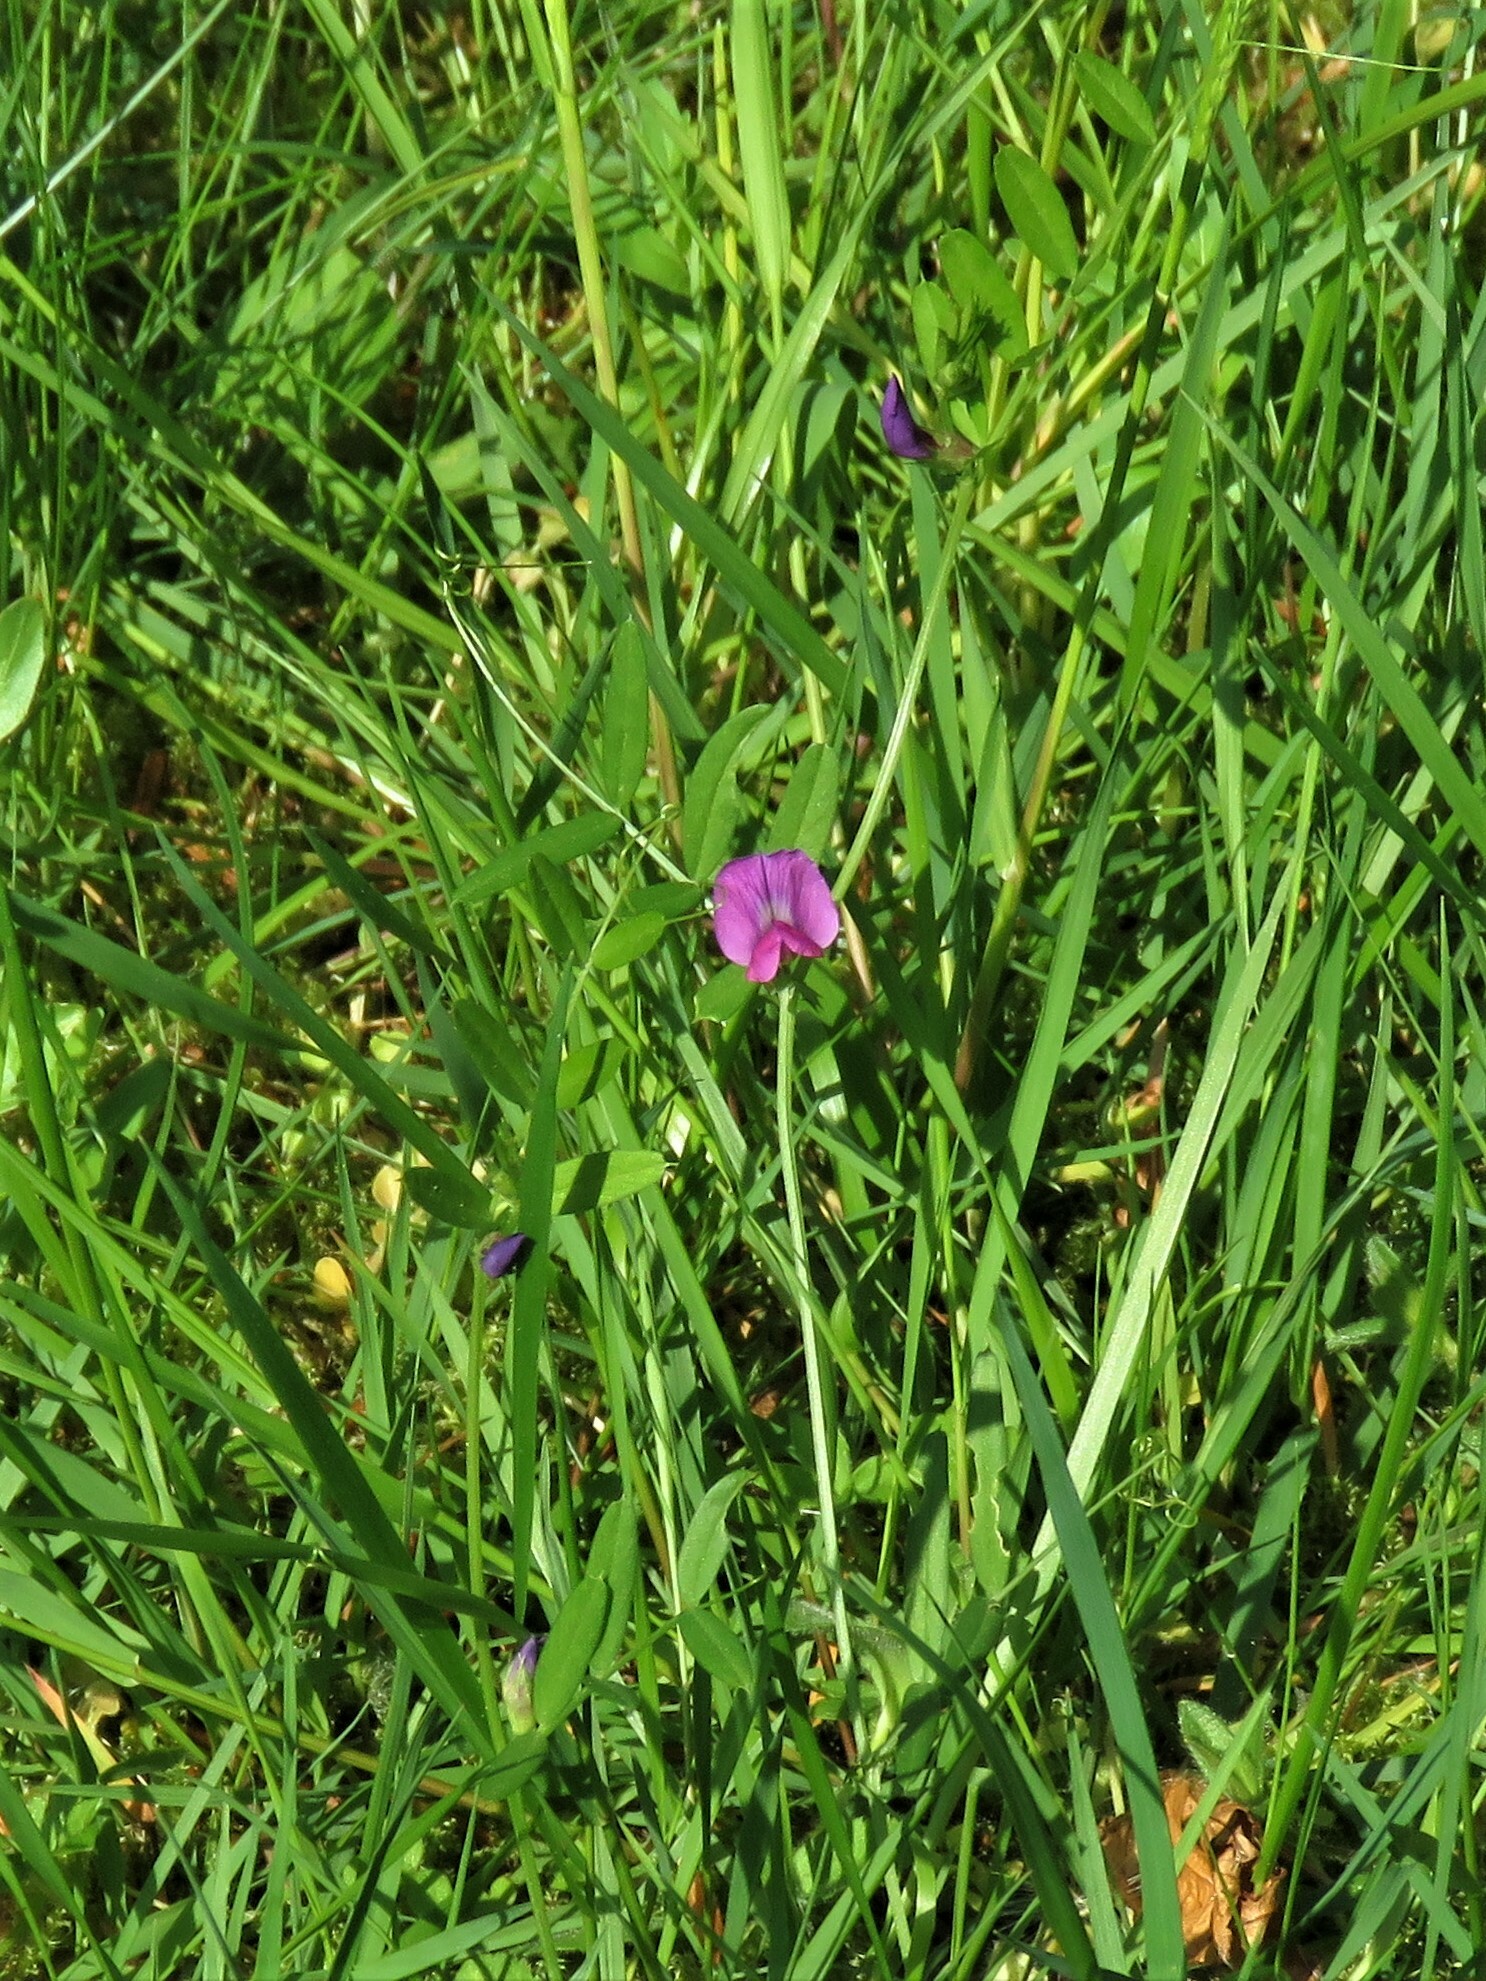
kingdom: Plantae
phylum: Tracheophyta
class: Magnoliopsida
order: Fabales
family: Fabaceae
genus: Vicia
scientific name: Vicia sativa
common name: Garden vetch
